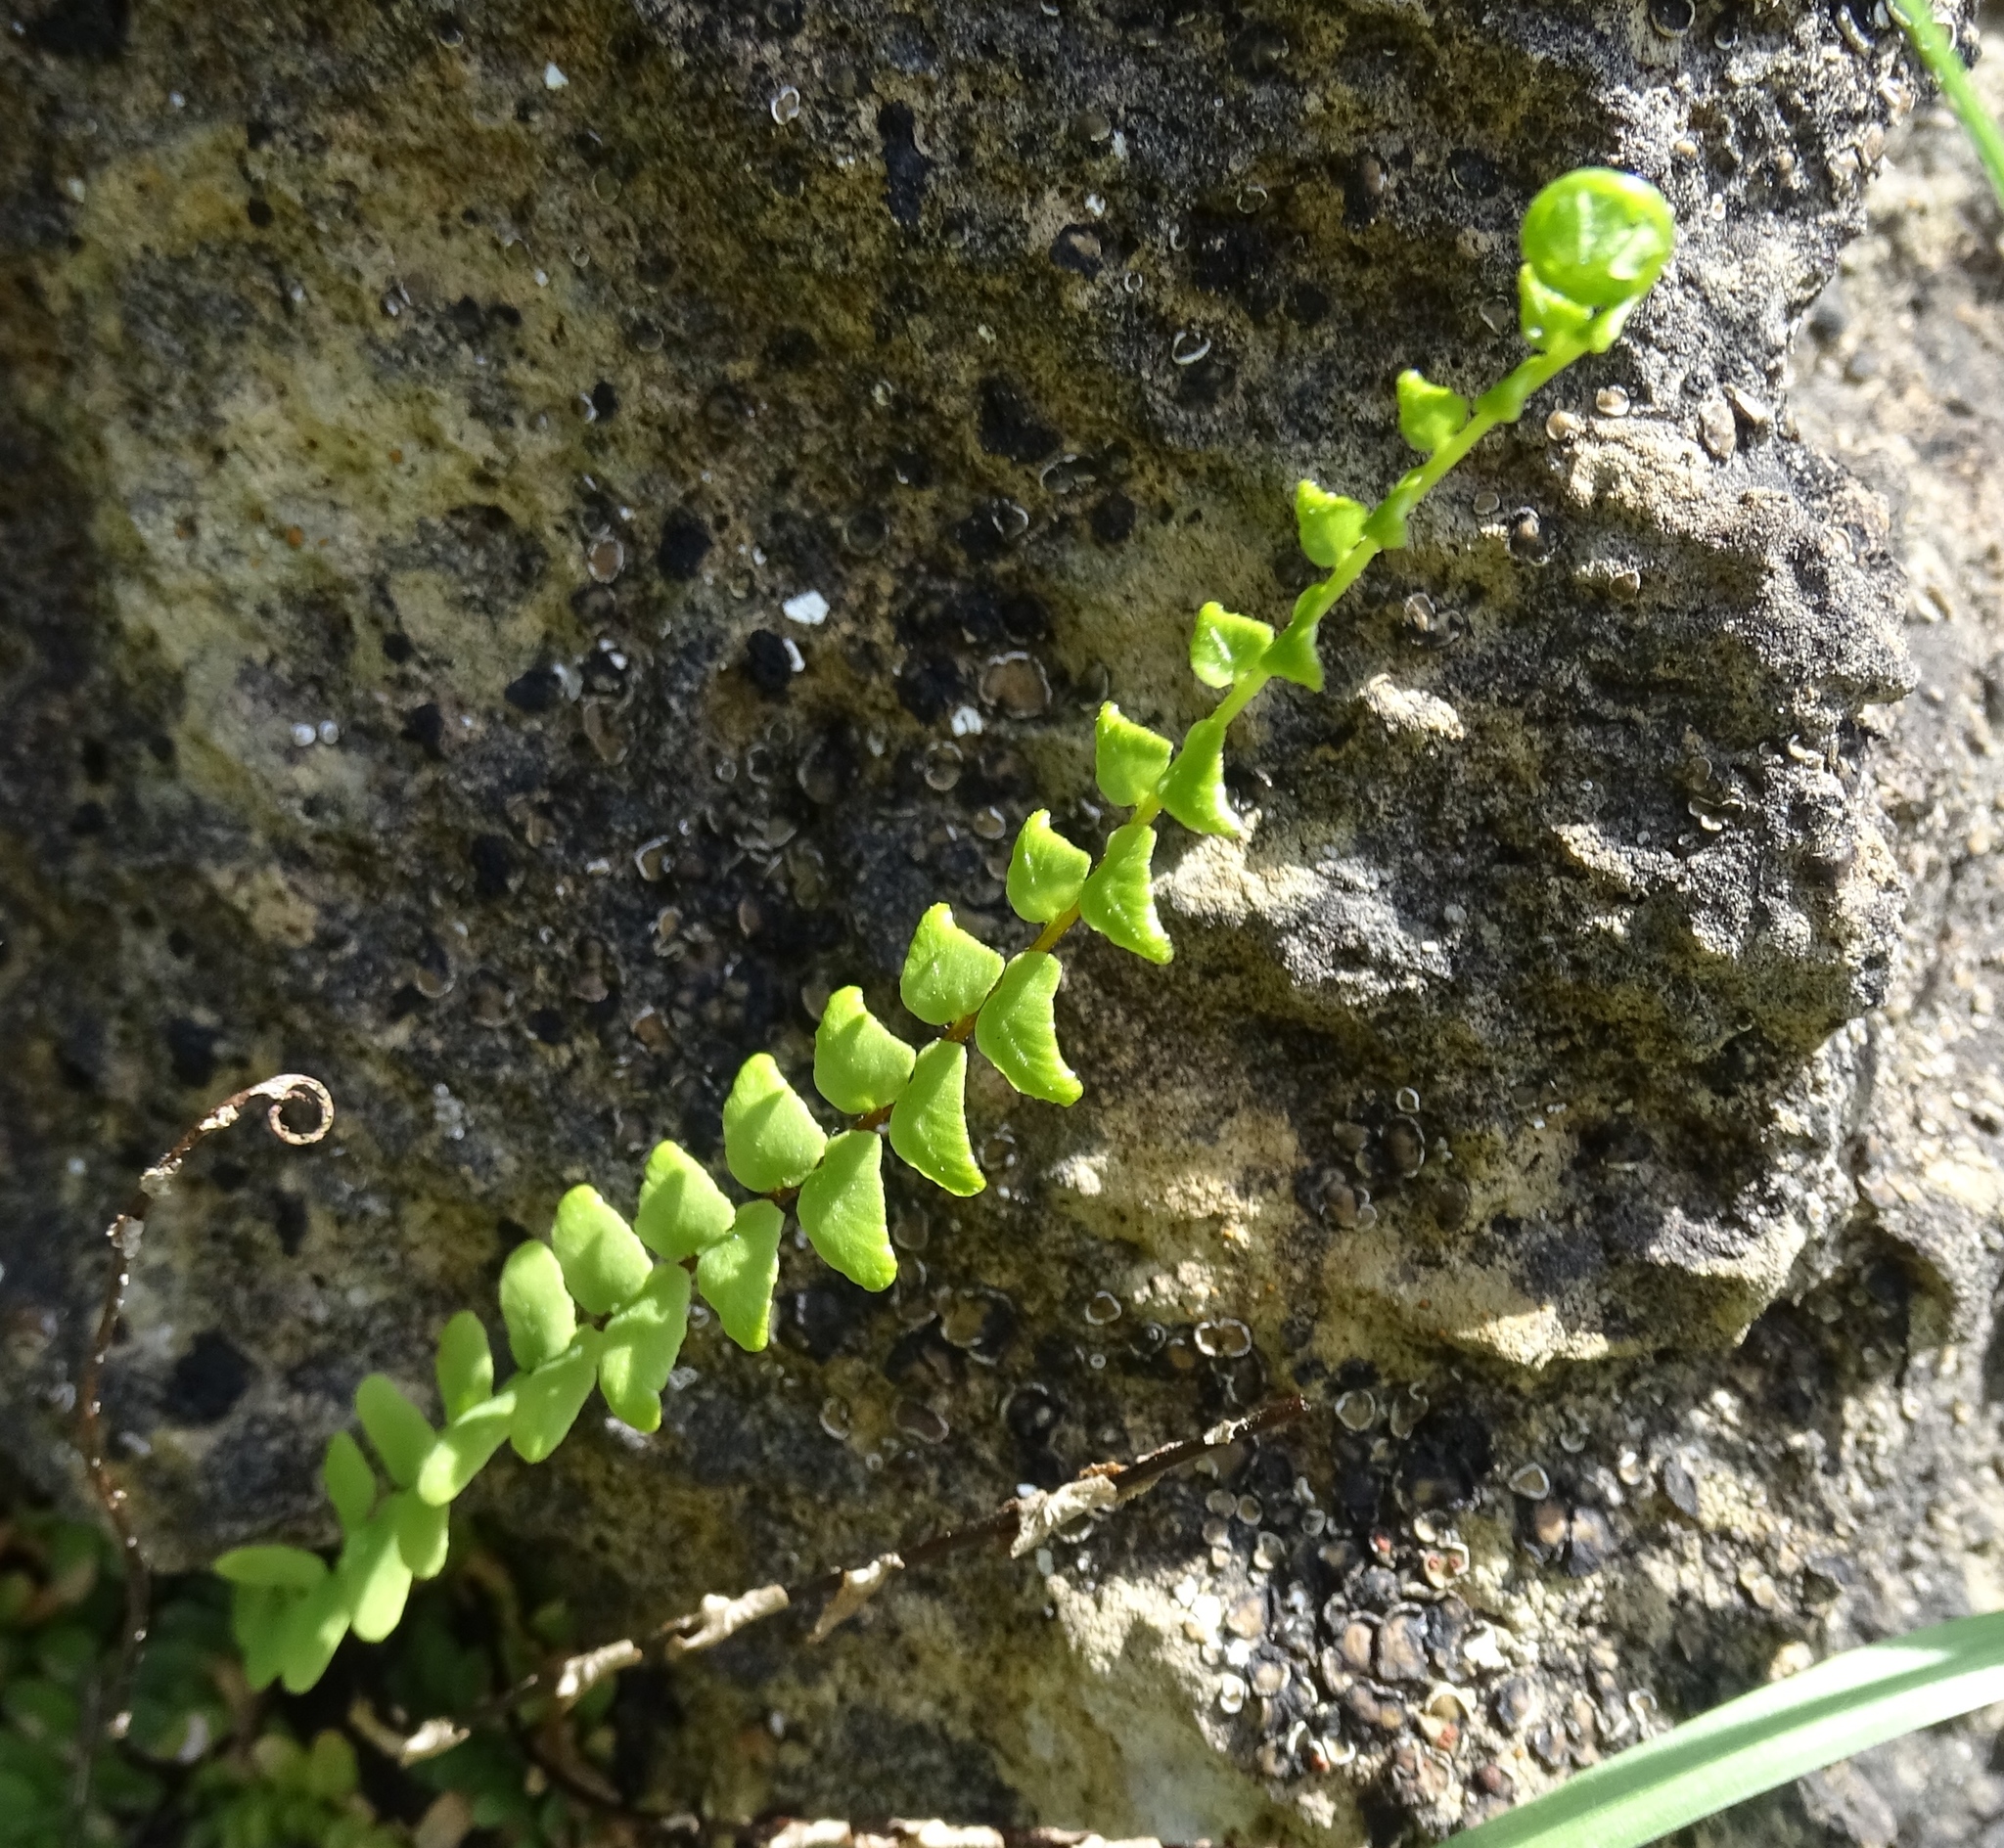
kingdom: Plantae
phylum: Tracheophyta
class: Polypodiopsida
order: Polypodiales
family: Aspleniaceae
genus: Asplenium
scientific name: Asplenium platyneuron
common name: Ebony spleenwort
